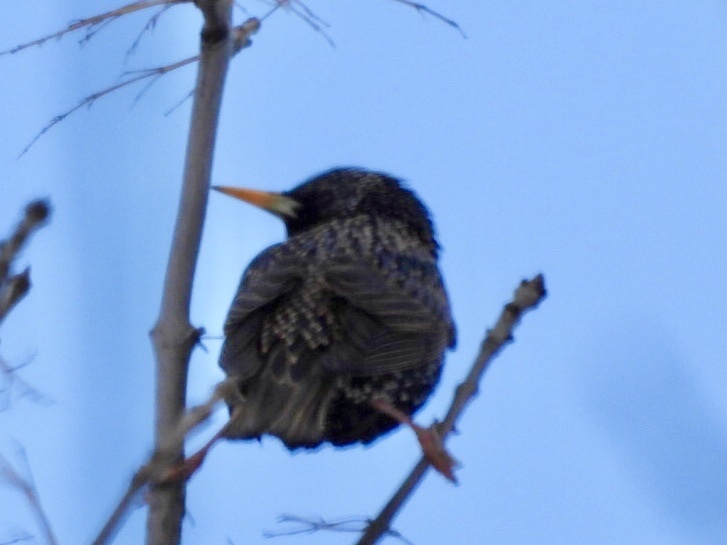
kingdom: Animalia
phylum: Chordata
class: Aves
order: Passeriformes
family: Sturnidae
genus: Sturnus
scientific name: Sturnus vulgaris
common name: Common starling
